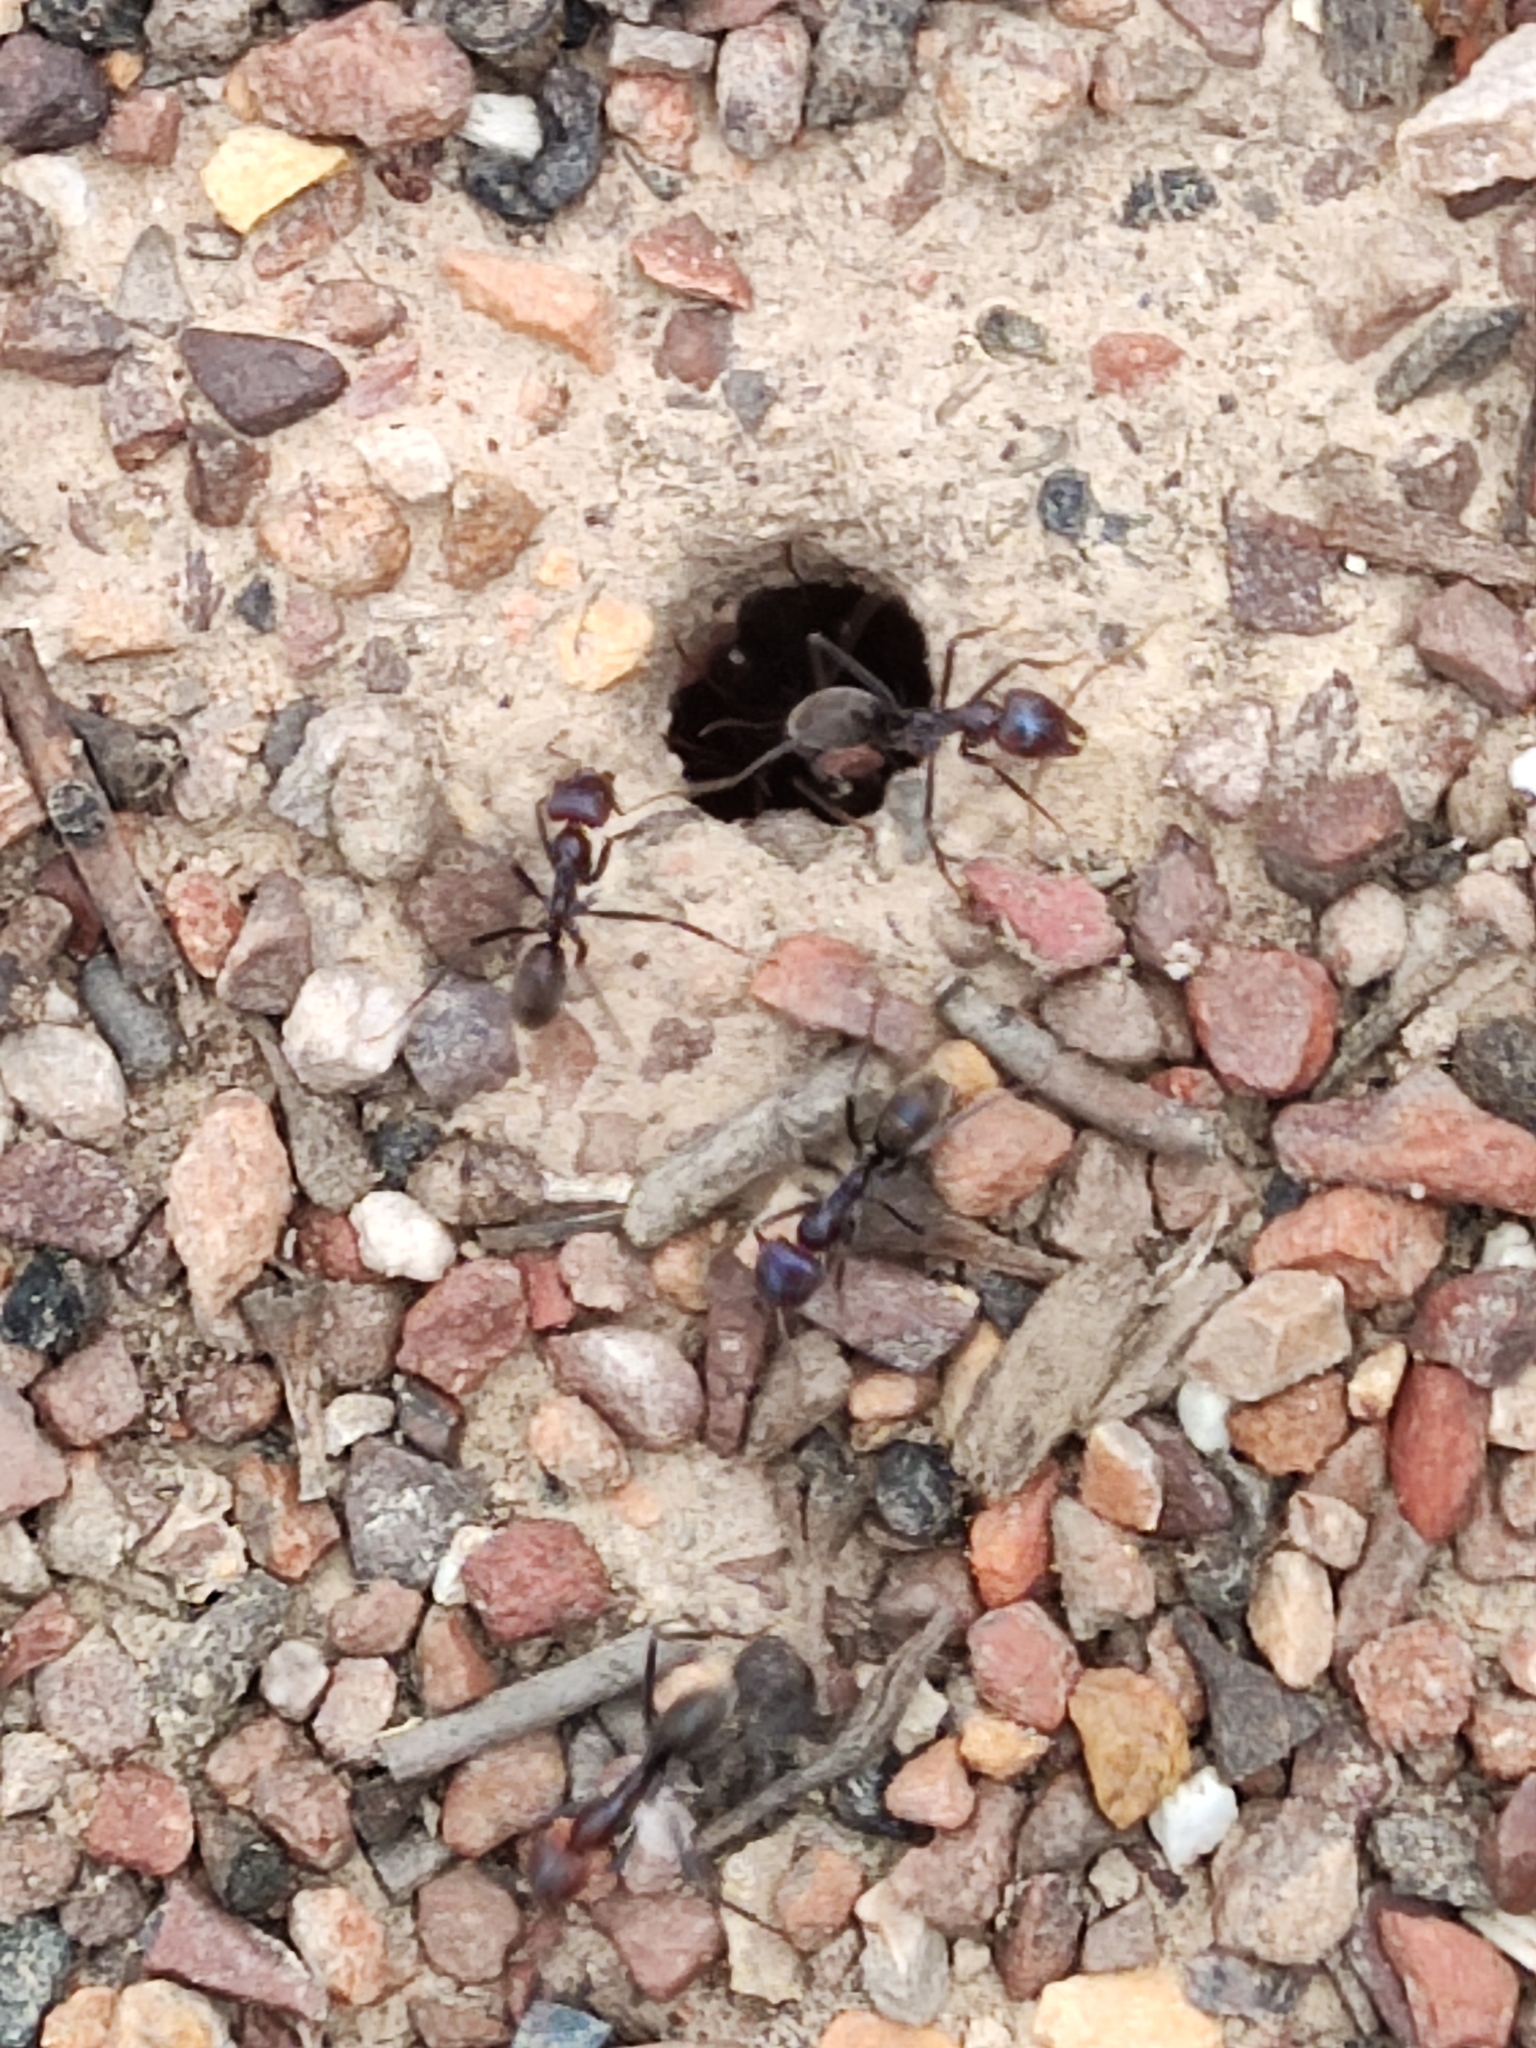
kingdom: Animalia
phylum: Arthropoda
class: Insecta
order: Hymenoptera
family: Formicidae
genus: Iridomyrmex
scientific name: Iridomyrmex purpureus
